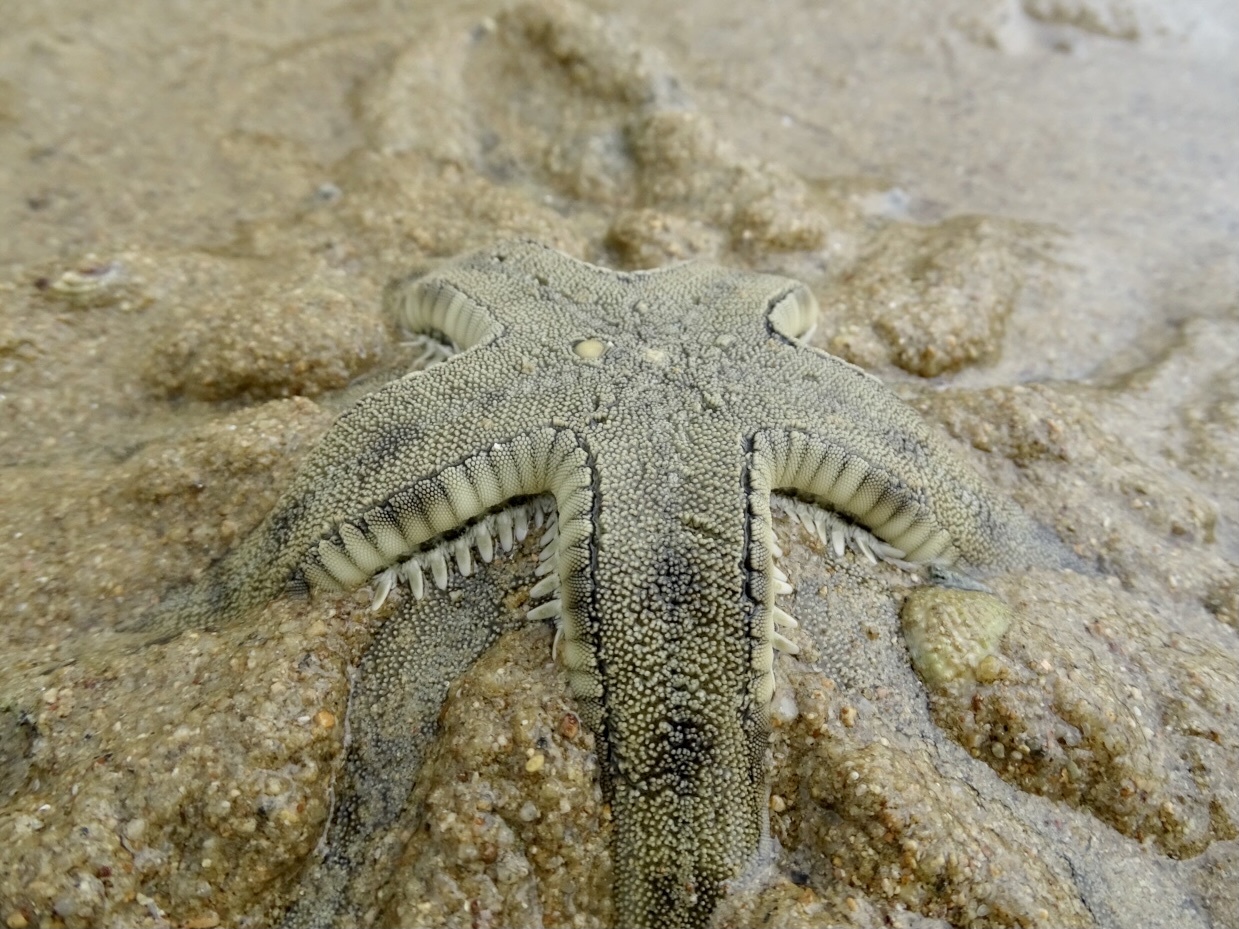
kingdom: Animalia
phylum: Echinodermata
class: Asteroidea
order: Valvatida
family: Archasteridae
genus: Archaster
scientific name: Archaster typicus
